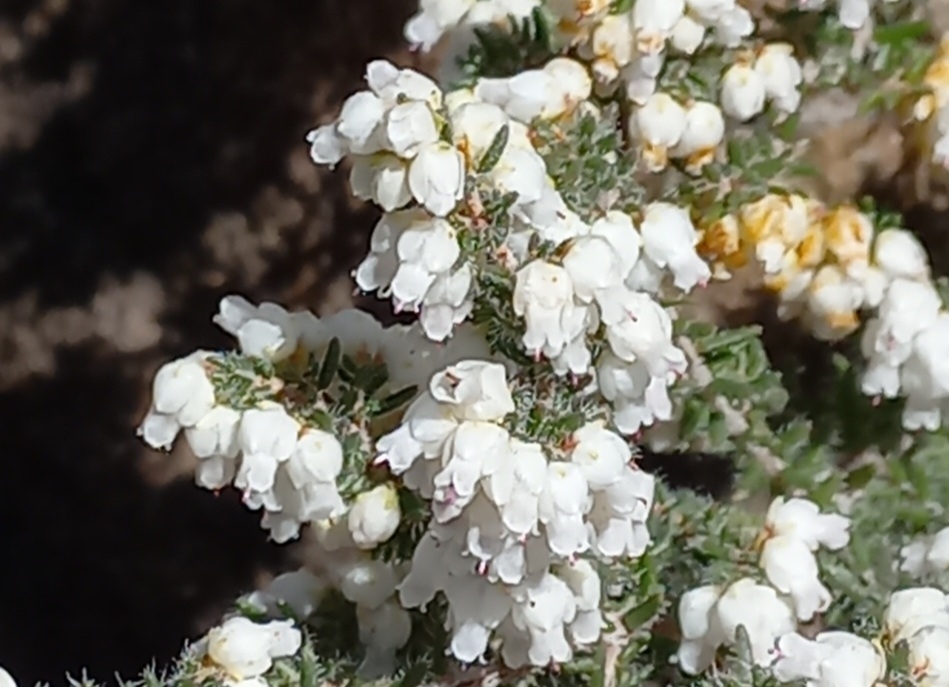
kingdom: Plantae
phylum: Tracheophyta
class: Magnoliopsida
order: Ericales
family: Ericaceae
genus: Erica
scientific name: Erica totta
